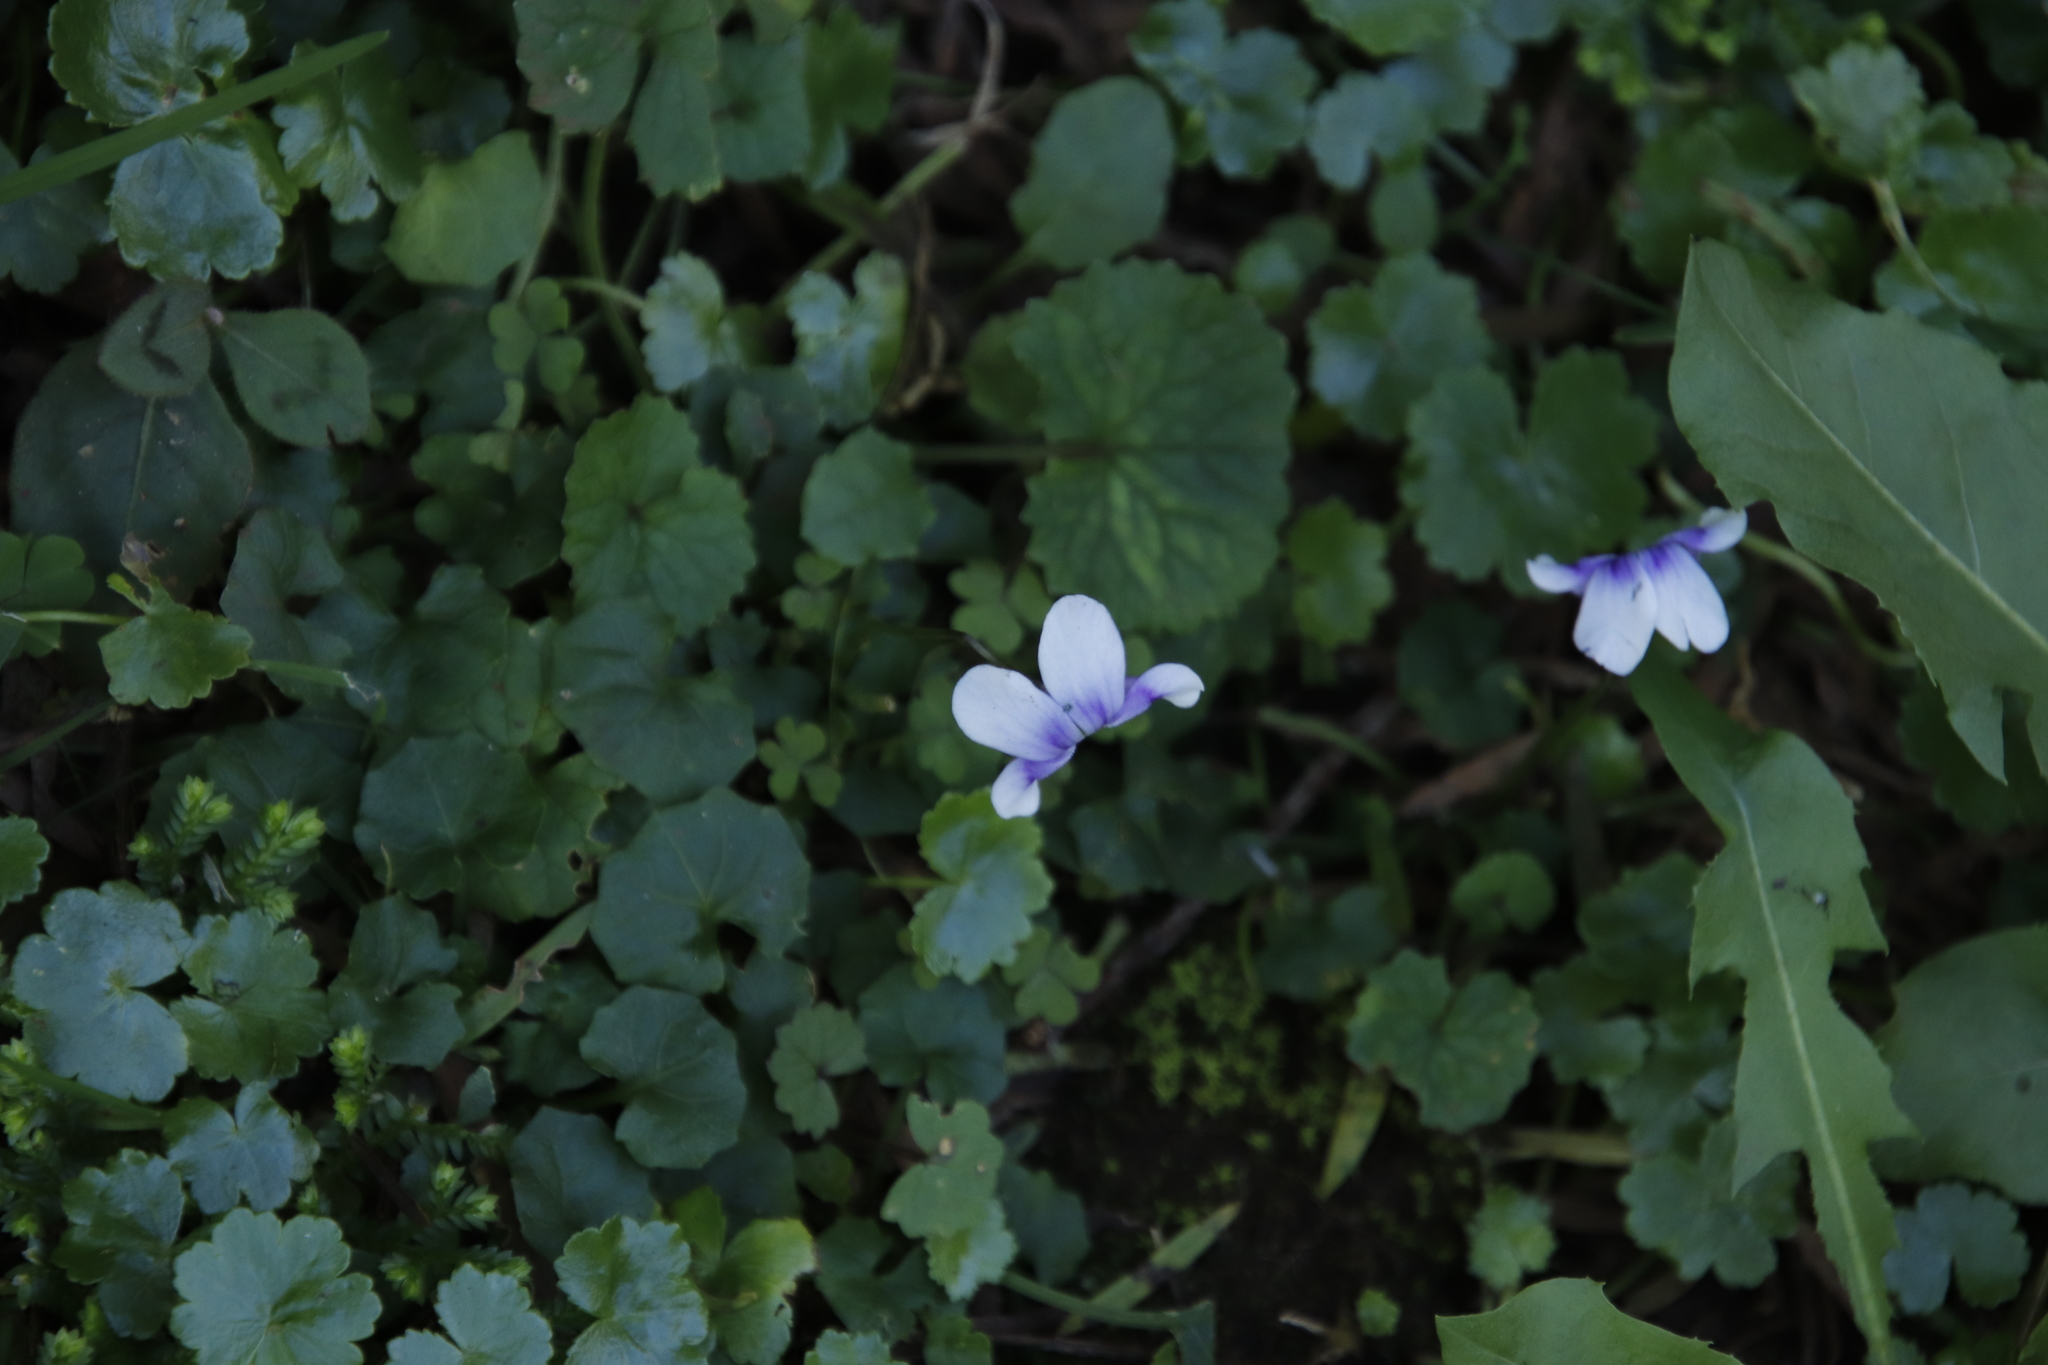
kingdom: Plantae
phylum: Tracheophyta
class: Magnoliopsida
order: Malpighiales
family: Violaceae
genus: Viola
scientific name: Viola banksii
